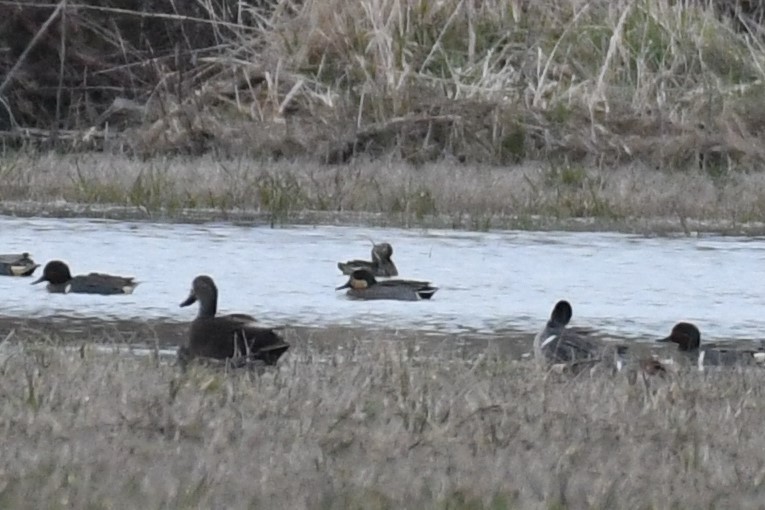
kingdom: Animalia
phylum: Chordata
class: Aves
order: Anseriformes
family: Anatidae
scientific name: Anatidae
